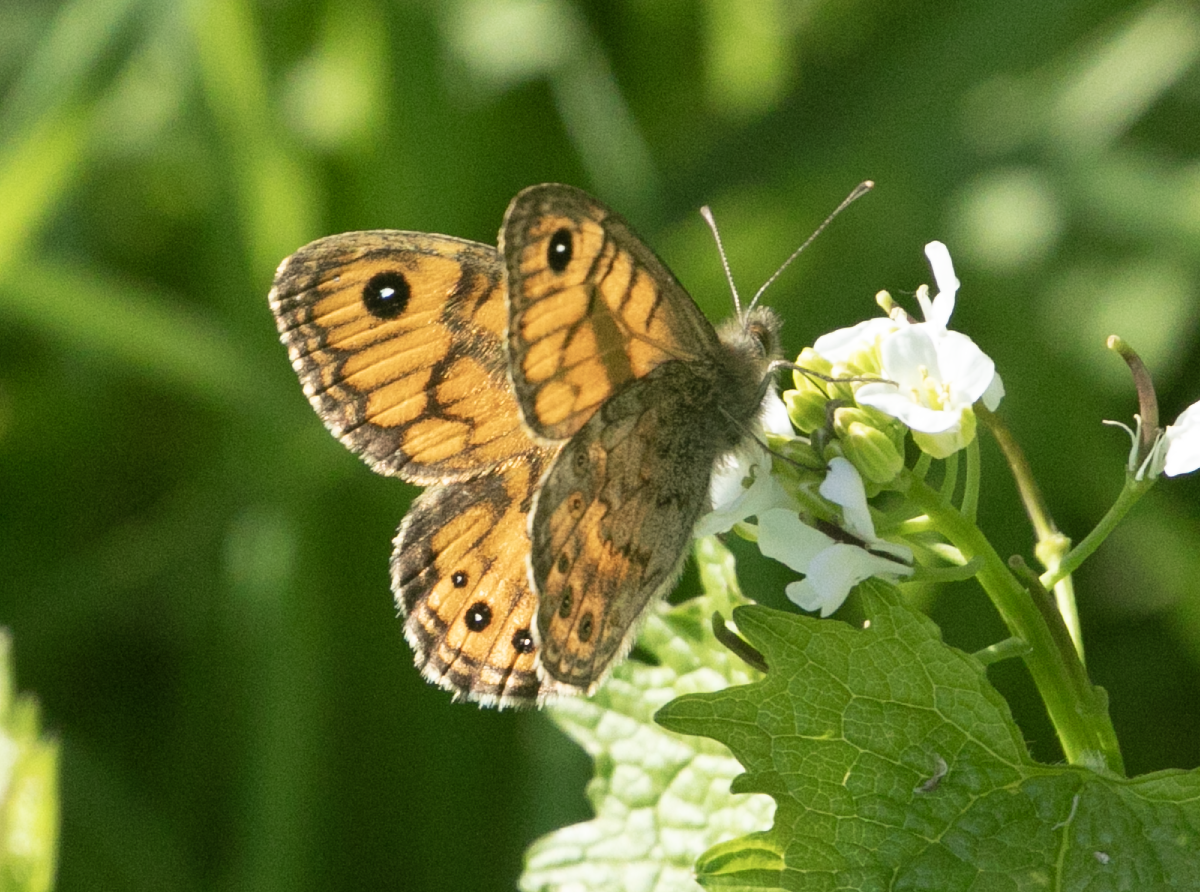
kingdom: Animalia
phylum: Arthropoda
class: Insecta
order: Lepidoptera
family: Nymphalidae
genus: Pararge
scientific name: Pararge Lasiommata megera
